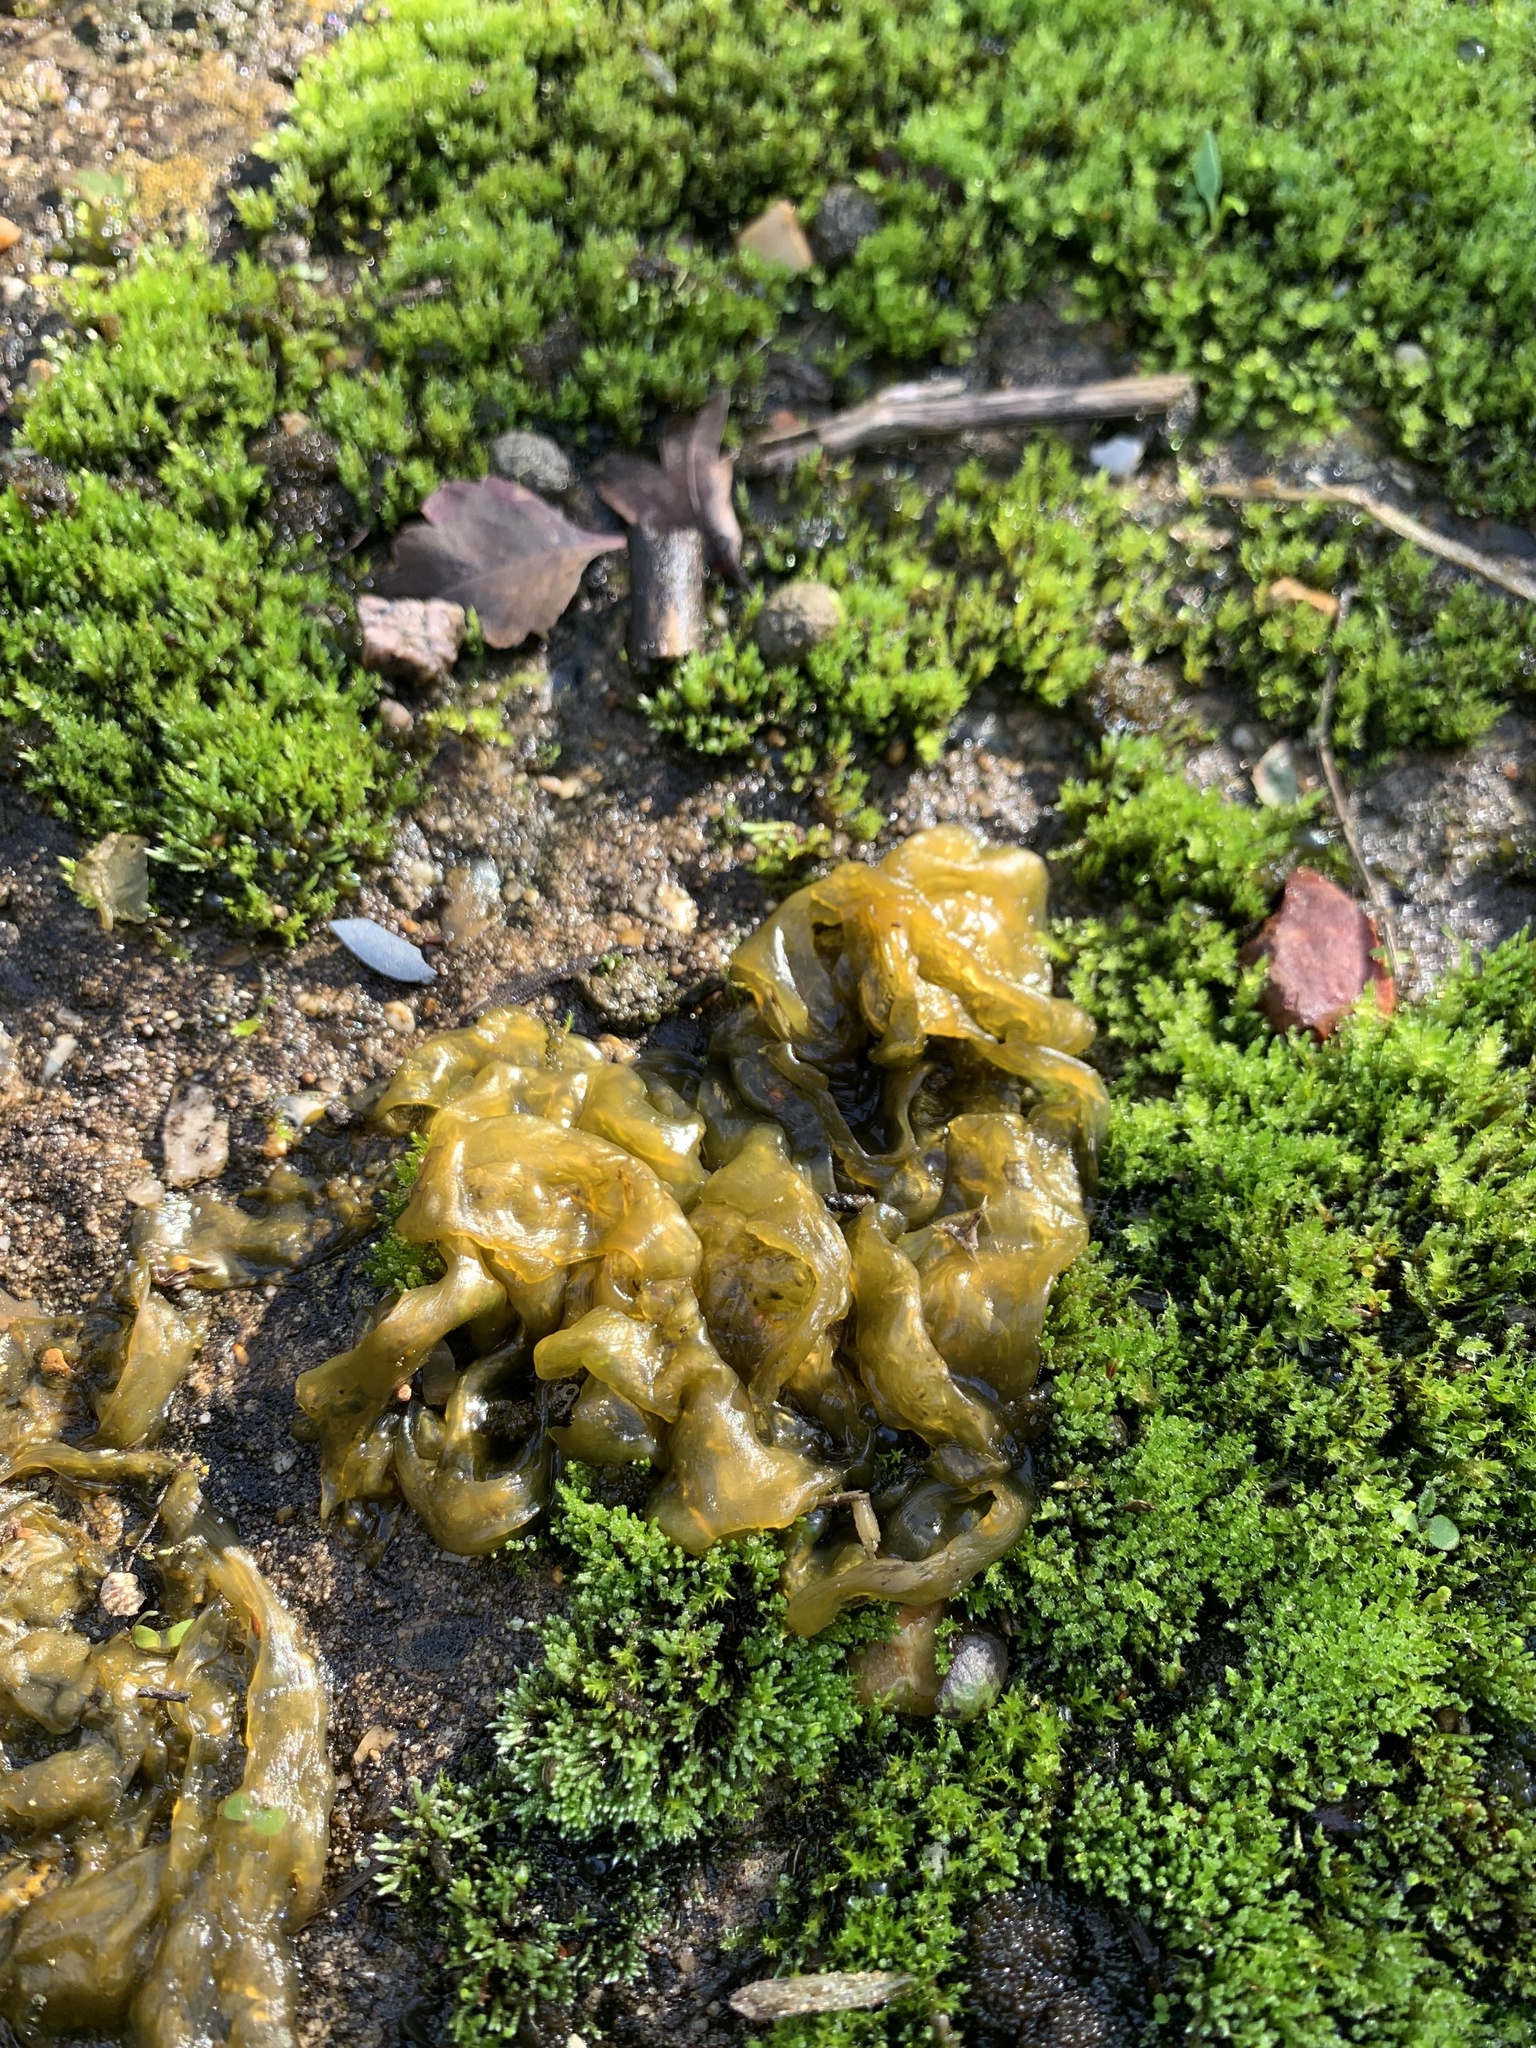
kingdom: Bacteria
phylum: Cyanobacteria
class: Cyanobacteriia
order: Cyanobacteriales
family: Nostocaceae
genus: Nostoc
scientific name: Nostoc commune
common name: Star jelly
